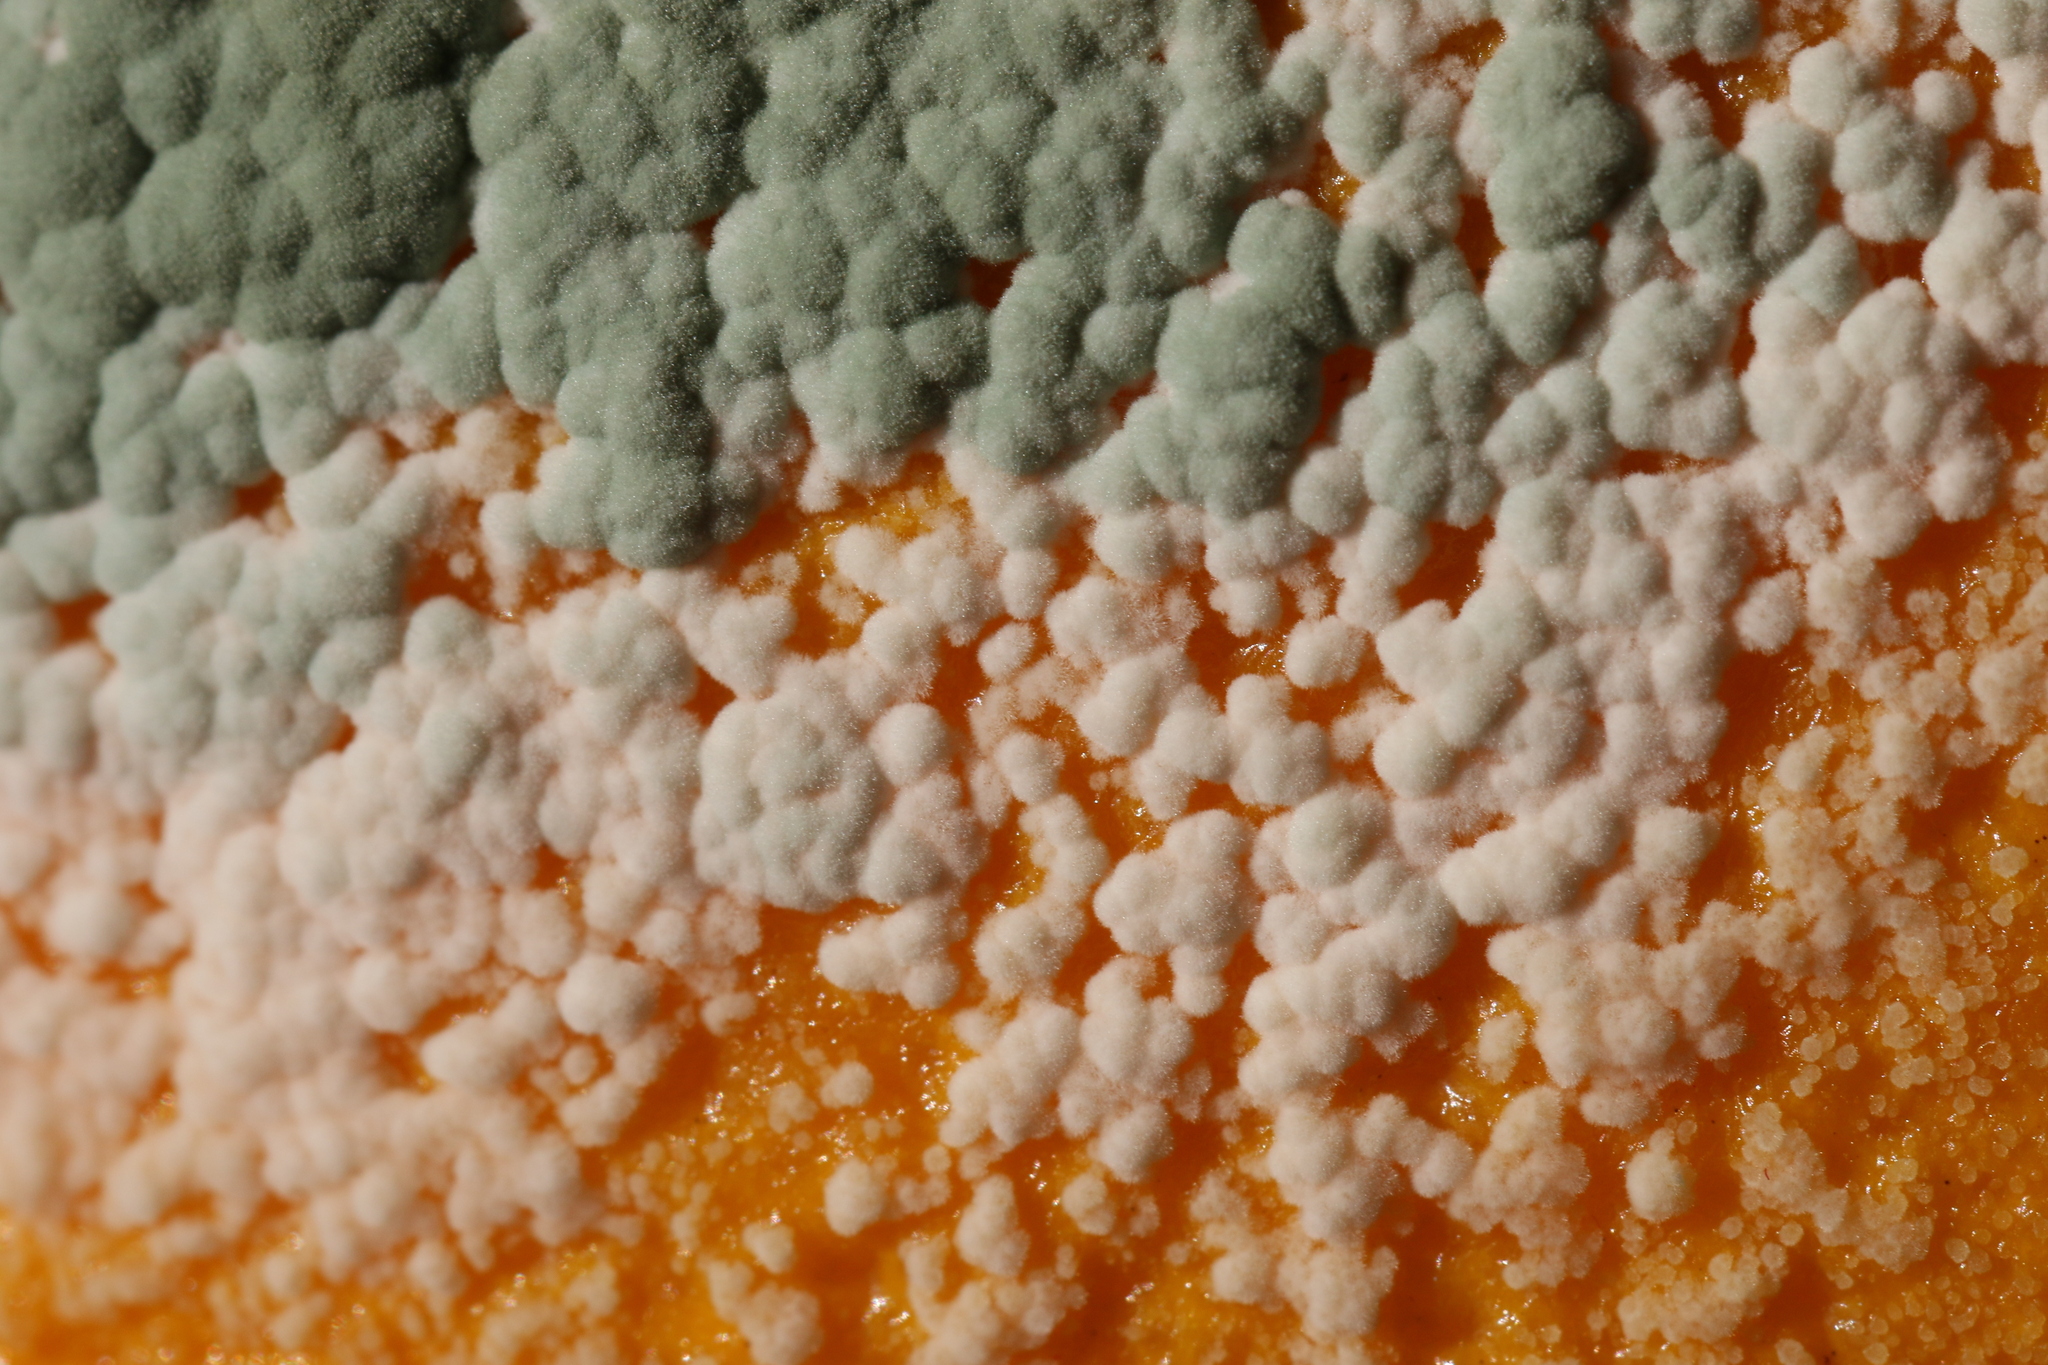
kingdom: Fungi
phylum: Ascomycota
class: Eurotiomycetes
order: Eurotiales
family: Aspergillaceae
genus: Penicillium
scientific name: Penicillium digitatum
